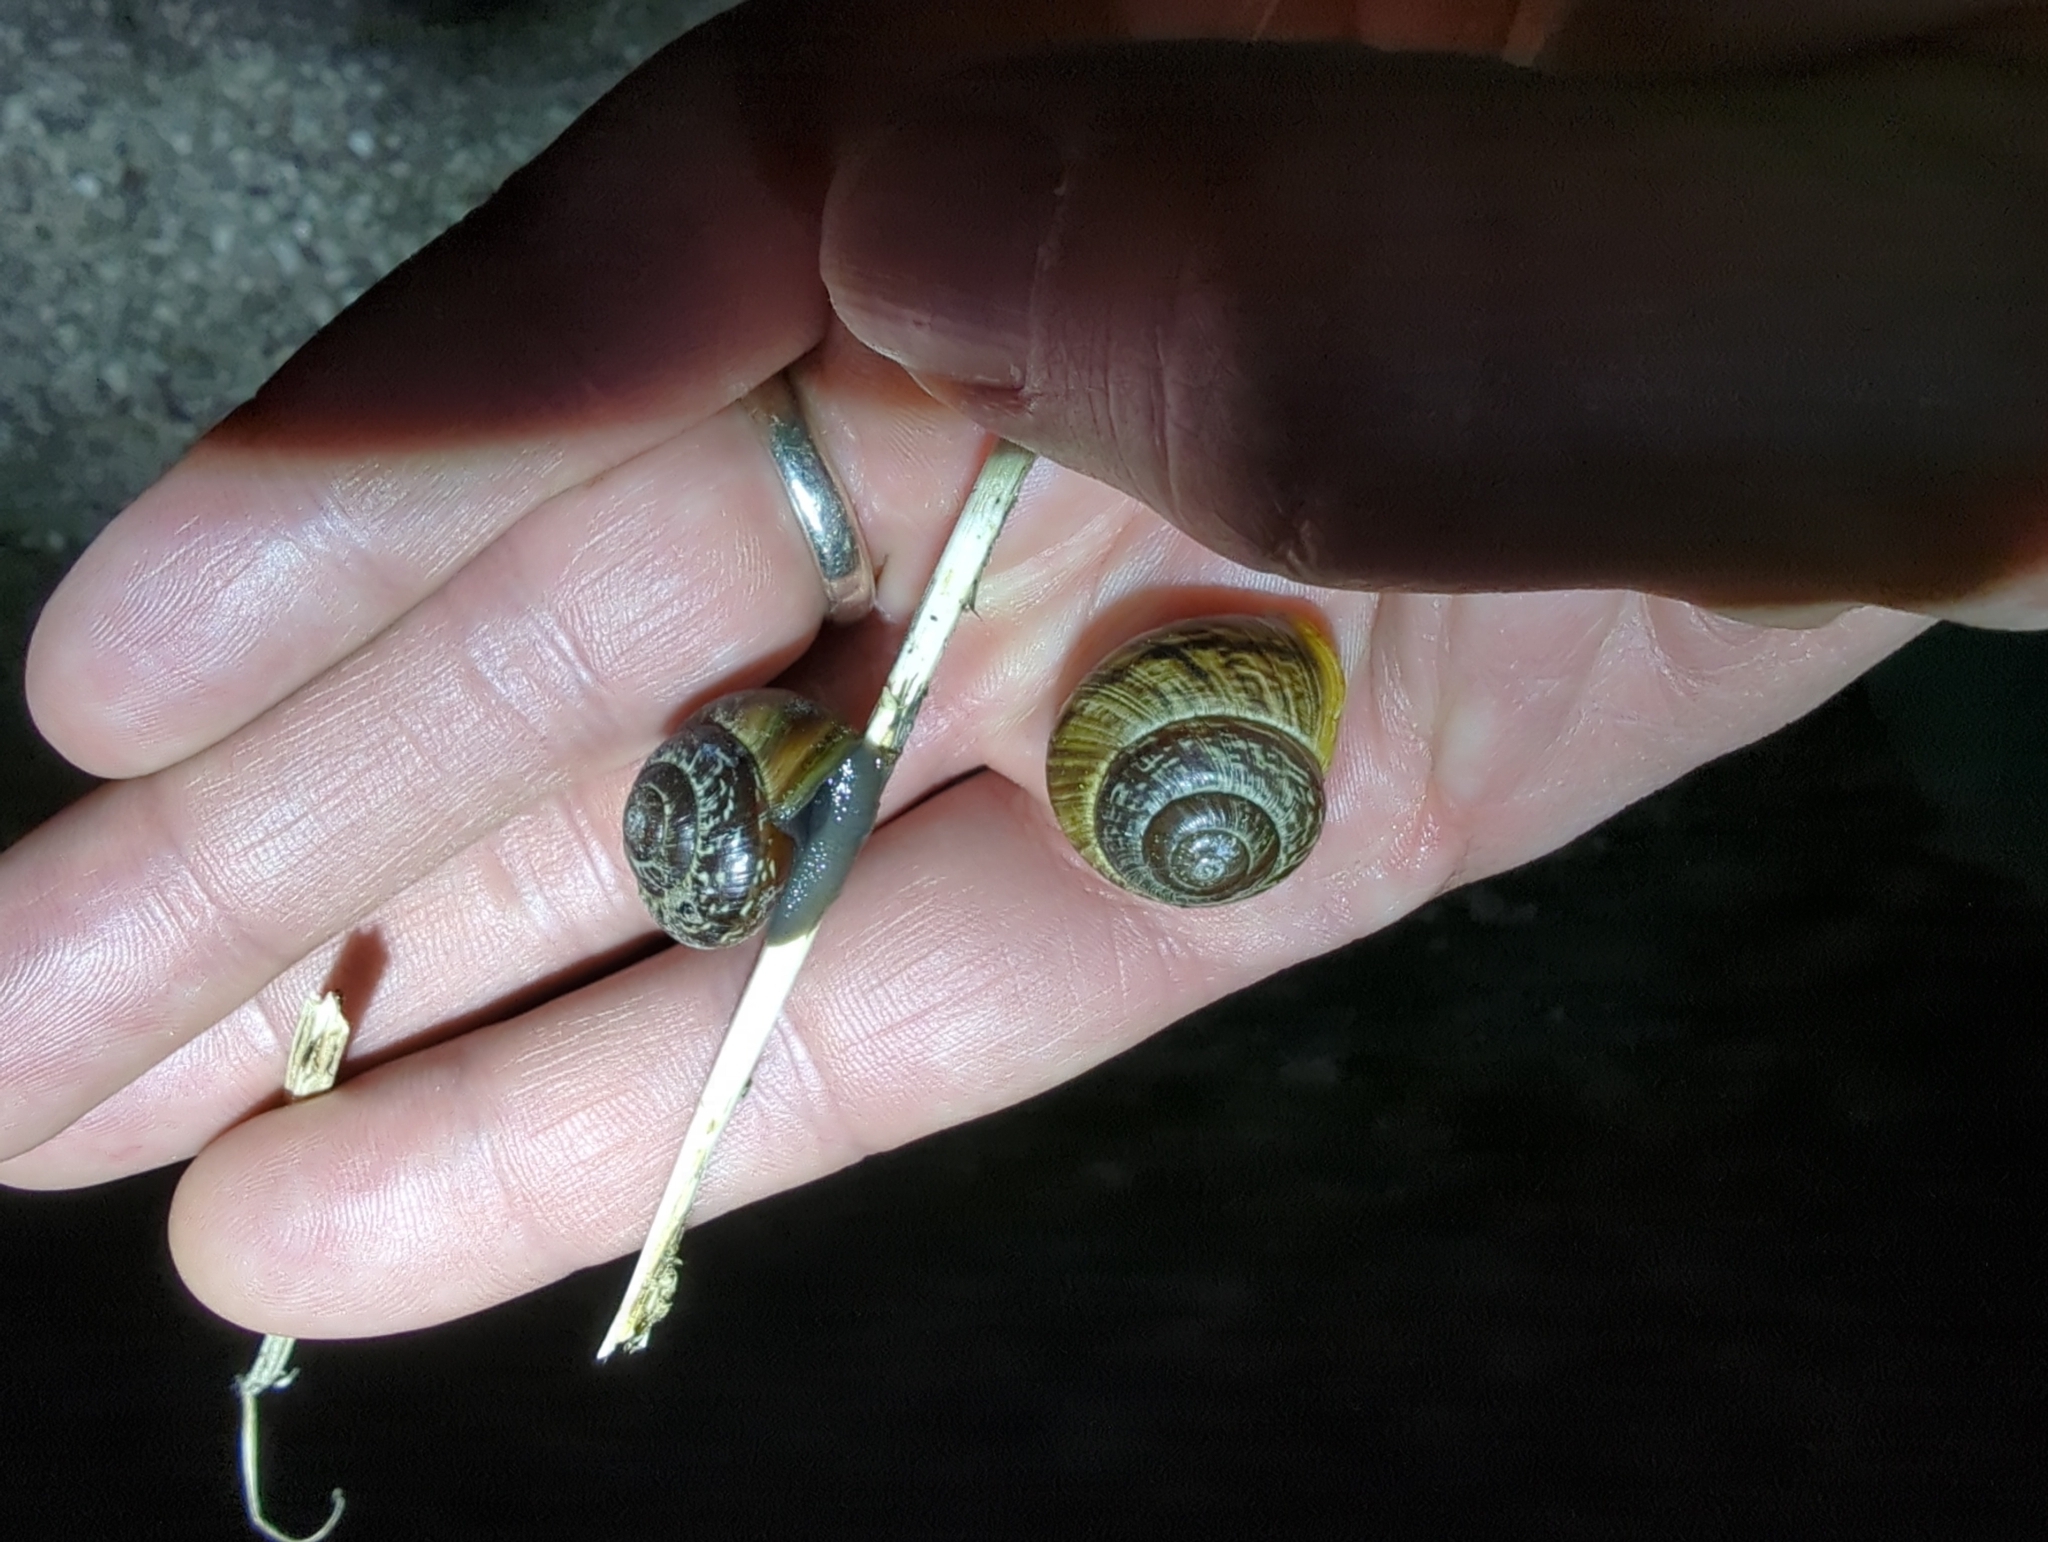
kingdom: Animalia
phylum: Mollusca
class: Gastropoda
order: Stylommatophora
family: Helicidae
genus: Arianta
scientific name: Arianta arbustorum
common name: Copse snail
